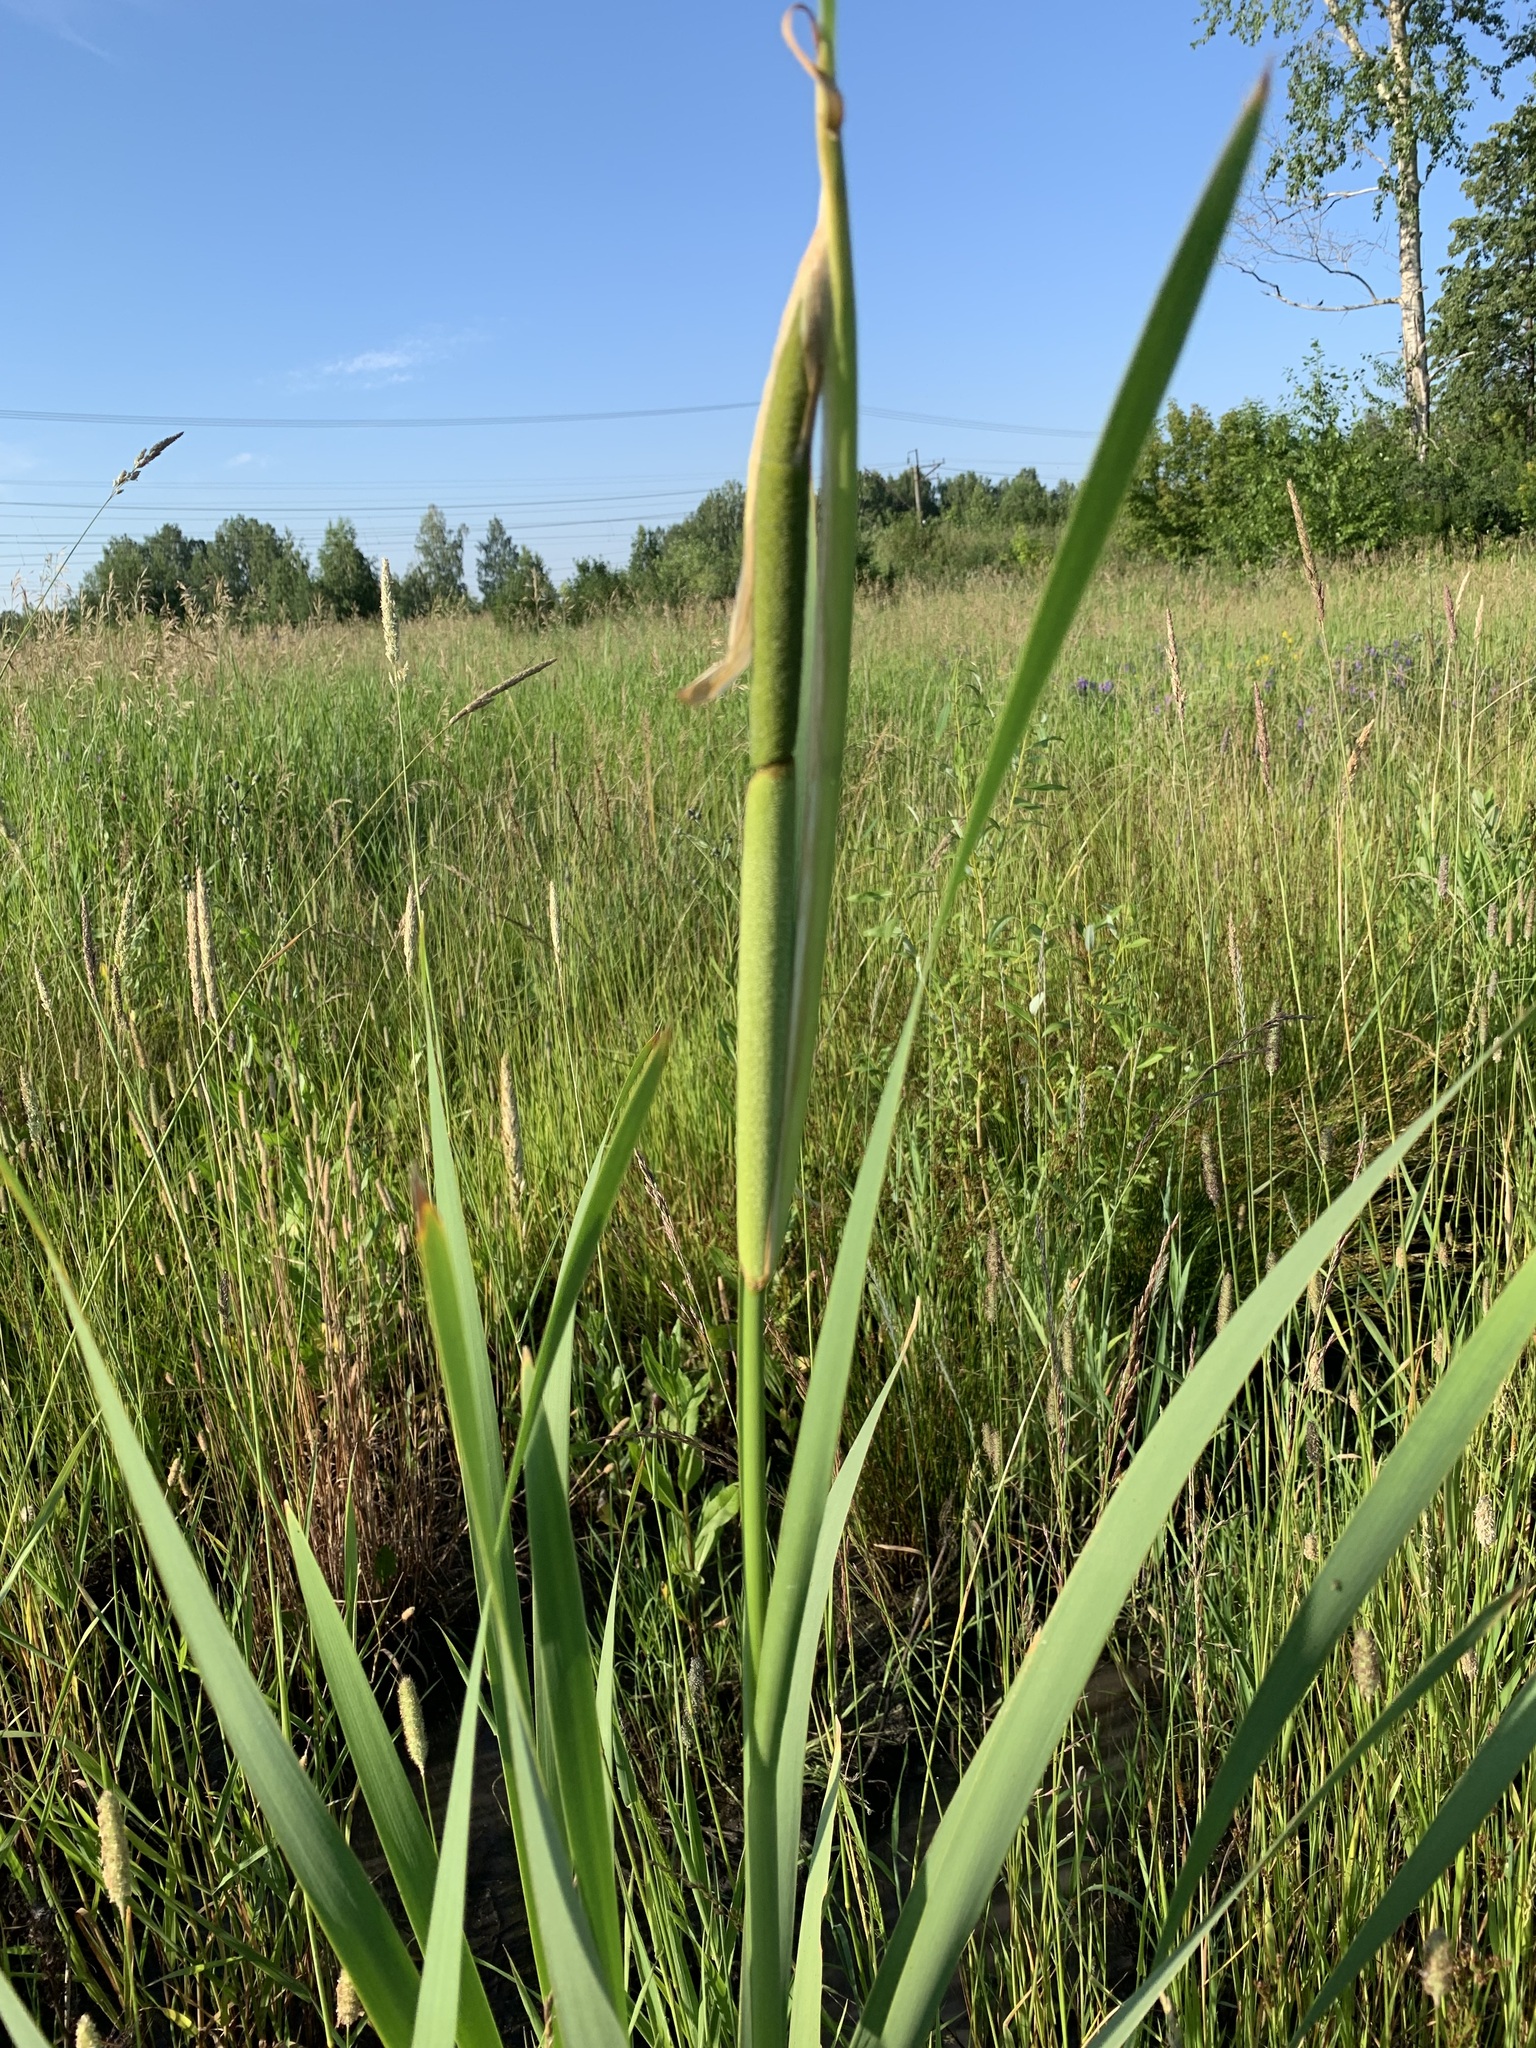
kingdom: Plantae
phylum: Tracheophyta
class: Liliopsida
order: Poales
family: Typhaceae
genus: Typha
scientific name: Typha latifolia
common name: Broadleaf cattail
